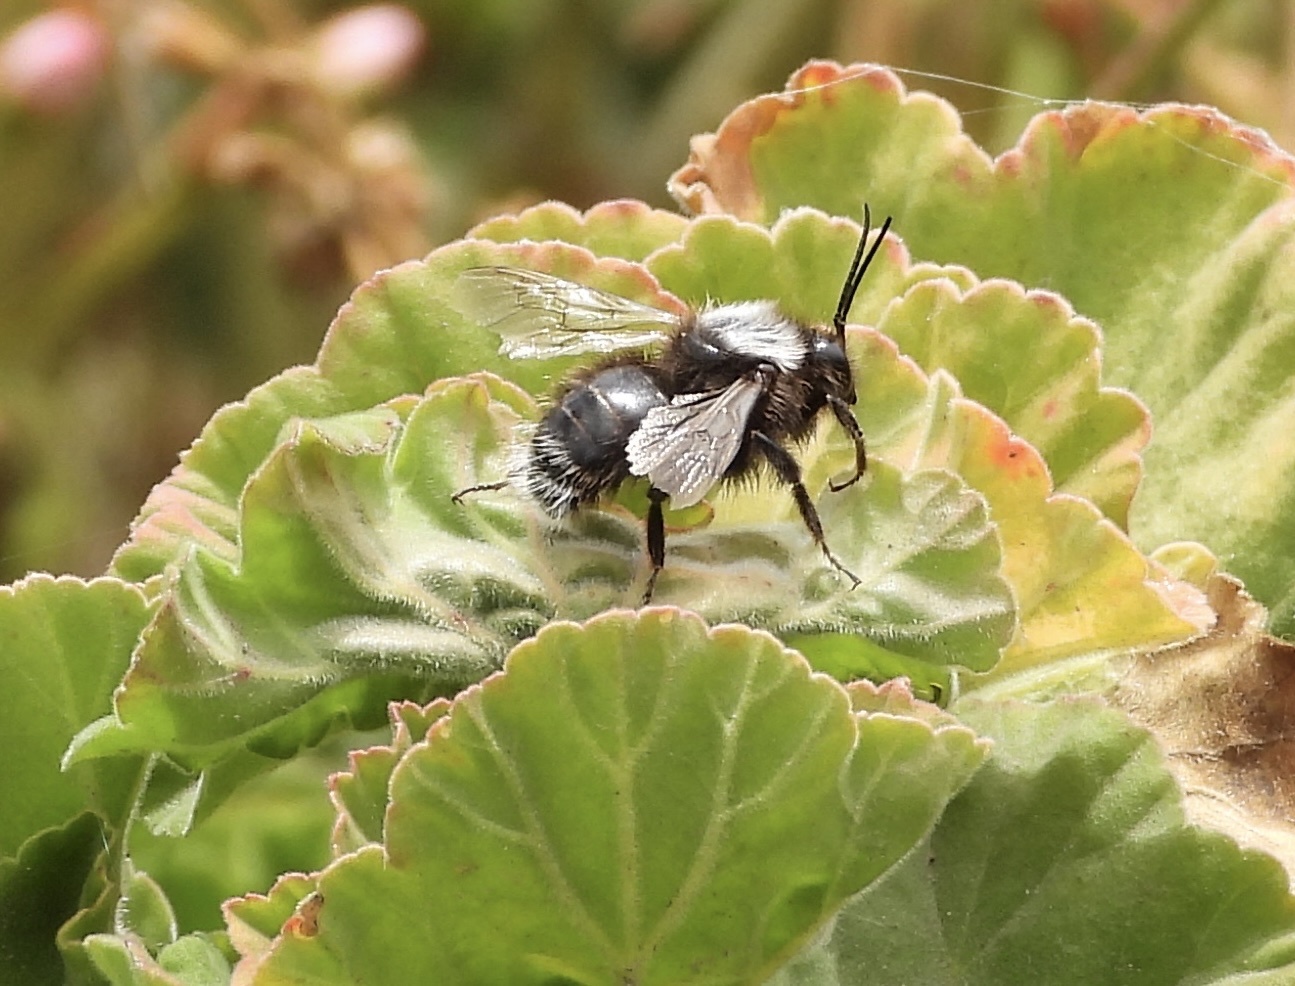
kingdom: Animalia
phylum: Arthropoda
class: Insecta
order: Hymenoptera
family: Apidae
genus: Bombus
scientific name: Bombus funebris
